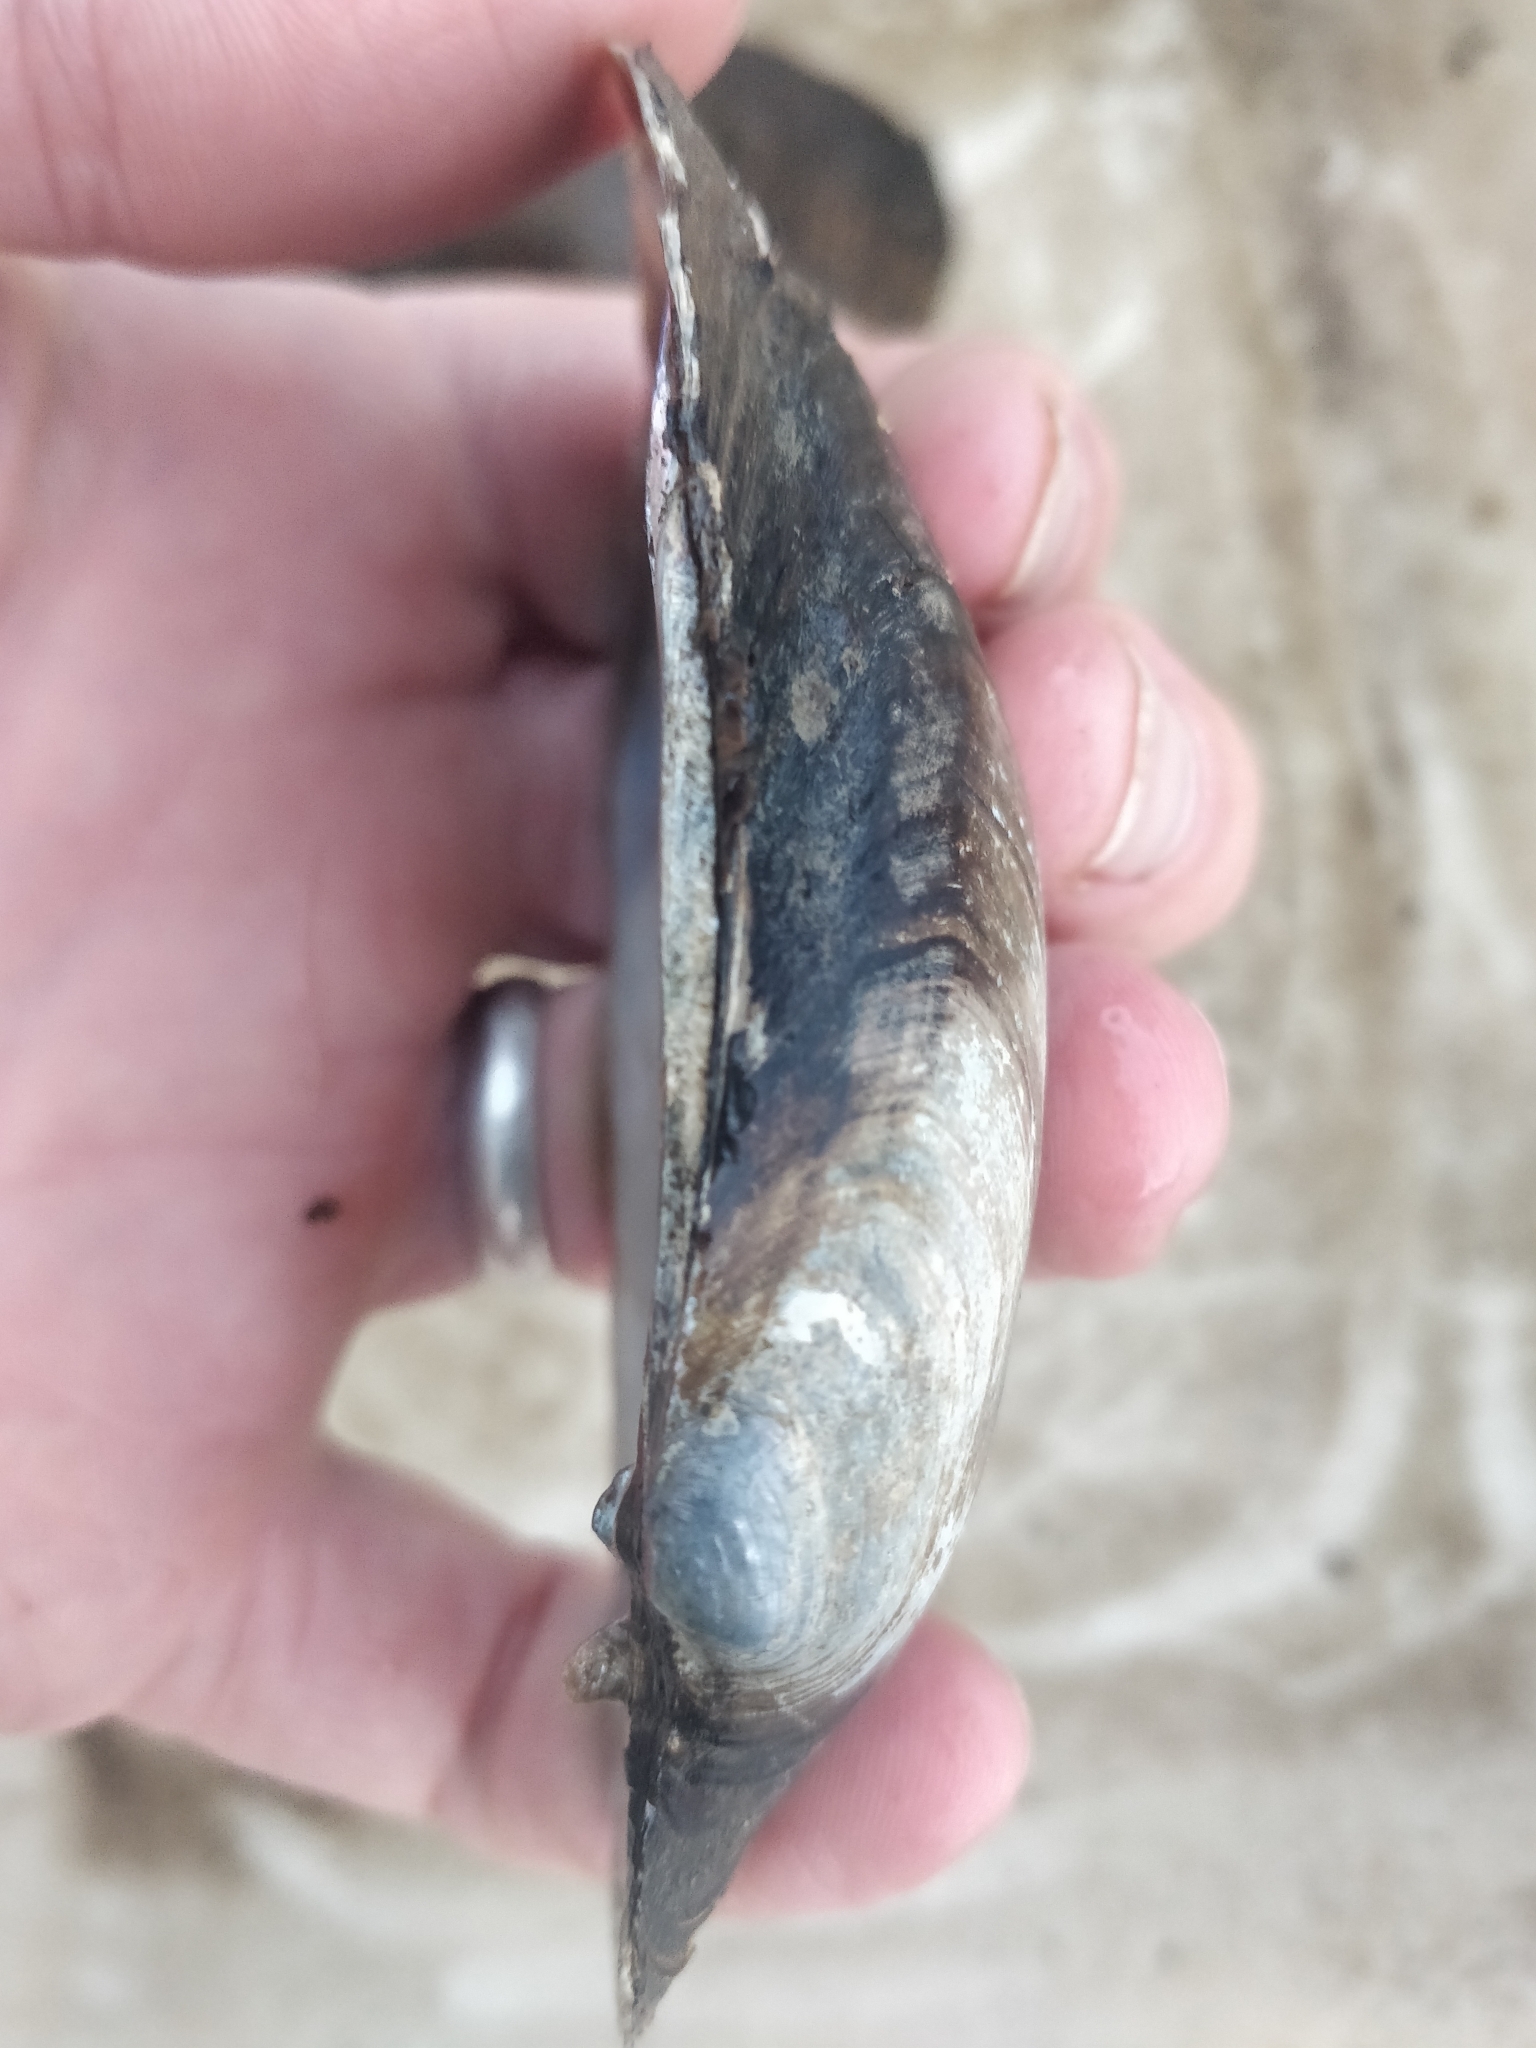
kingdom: Animalia
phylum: Mollusca
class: Bivalvia
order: Unionida
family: Unionidae
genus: Lampsilis
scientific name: Lampsilis siliquoidea
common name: Fatmucket
